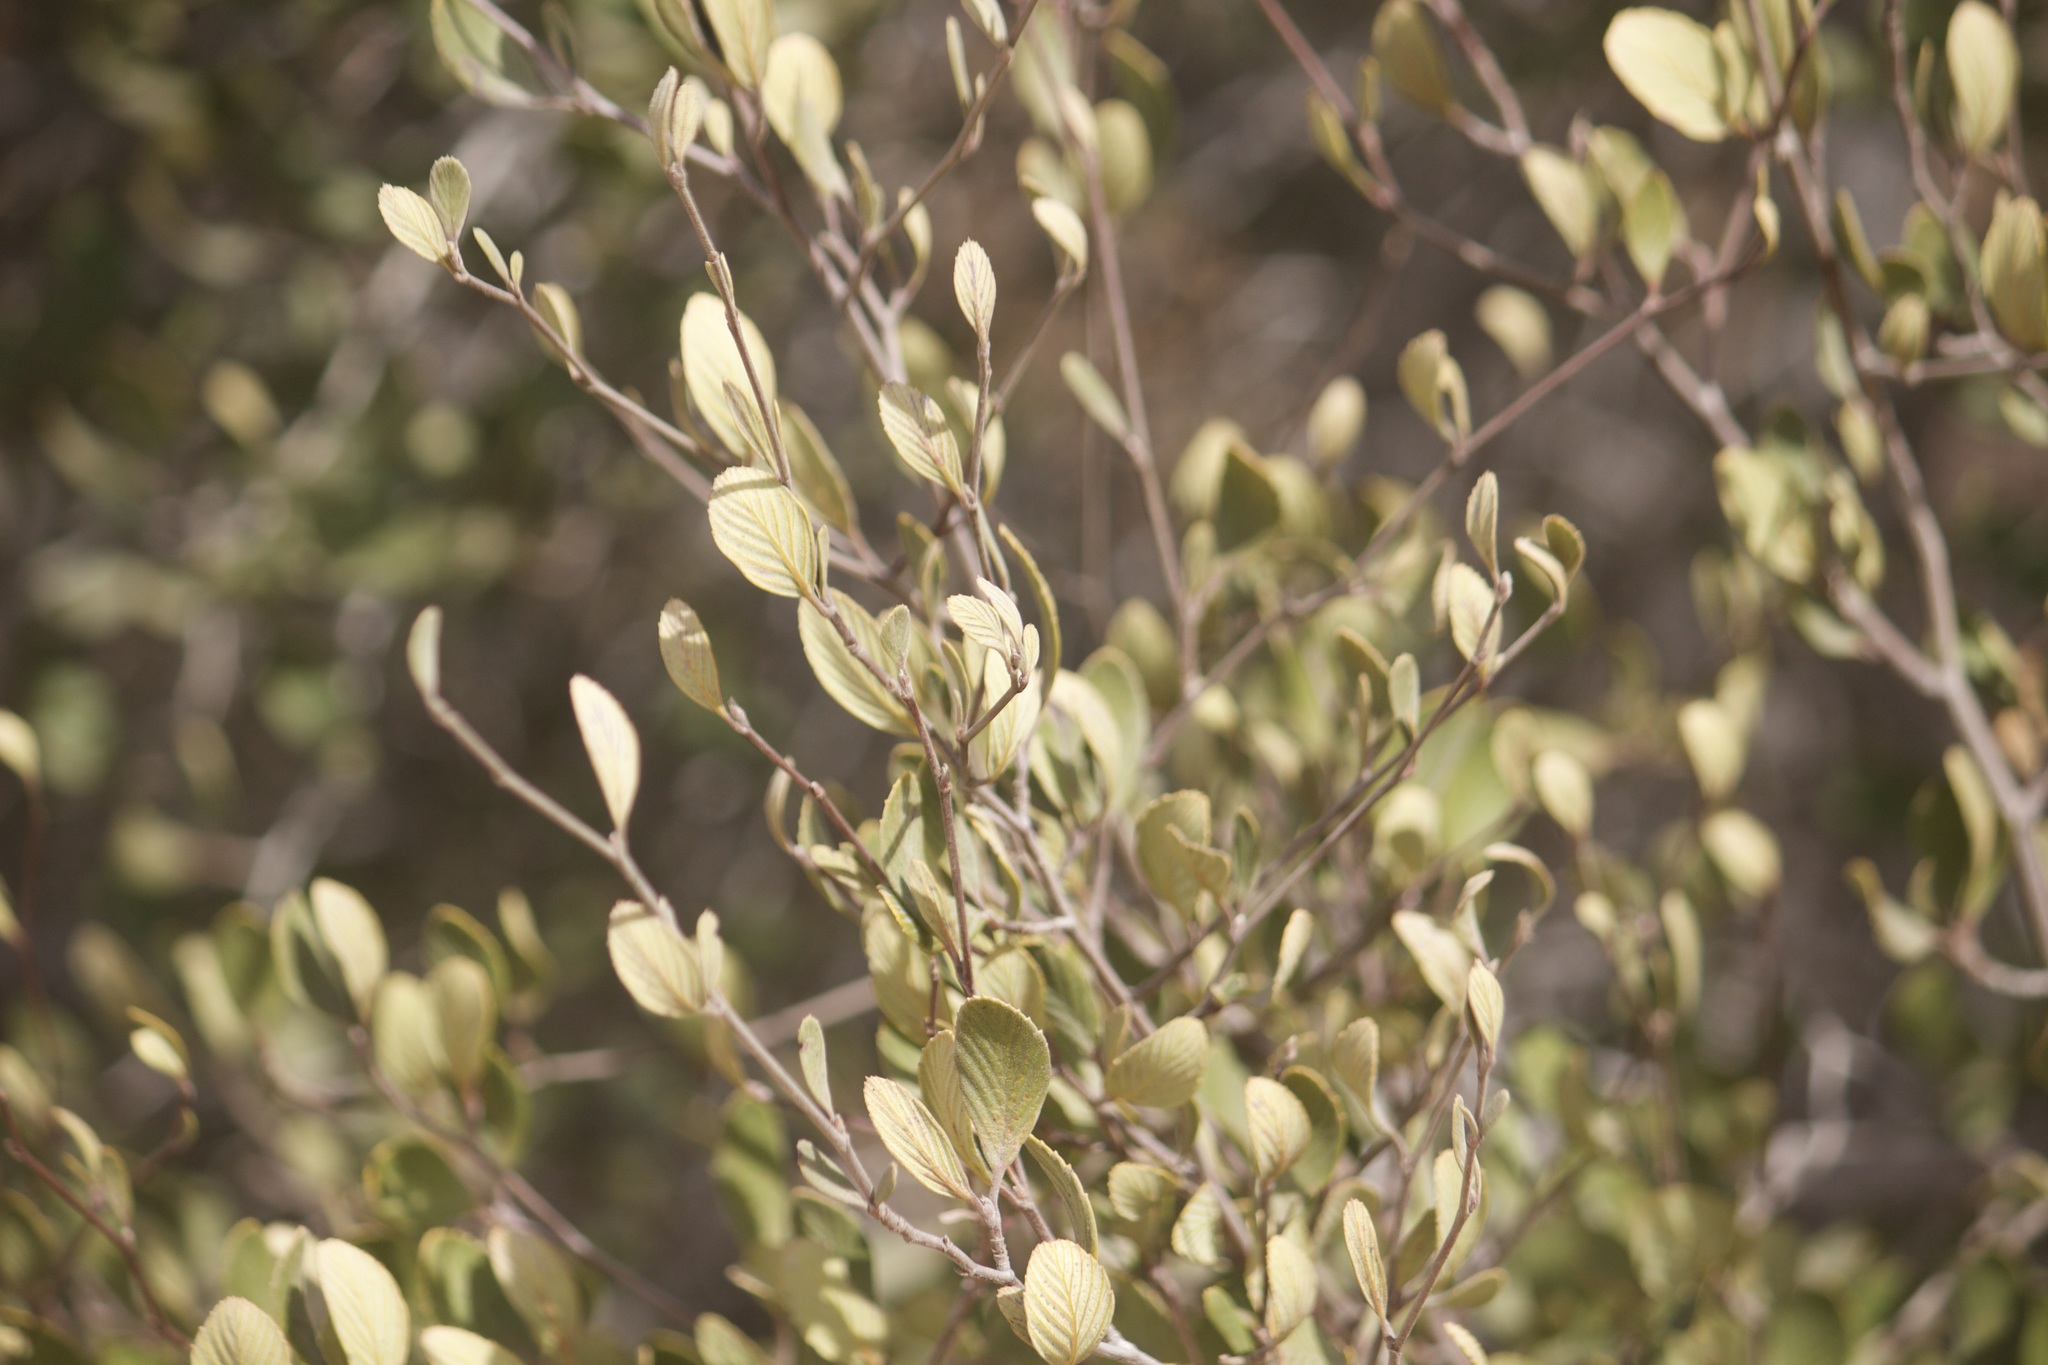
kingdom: Plantae
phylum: Tracheophyta
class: Magnoliopsida
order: Rosales
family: Rosaceae
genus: Cercocarpus
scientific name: Cercocarpus betuloides
